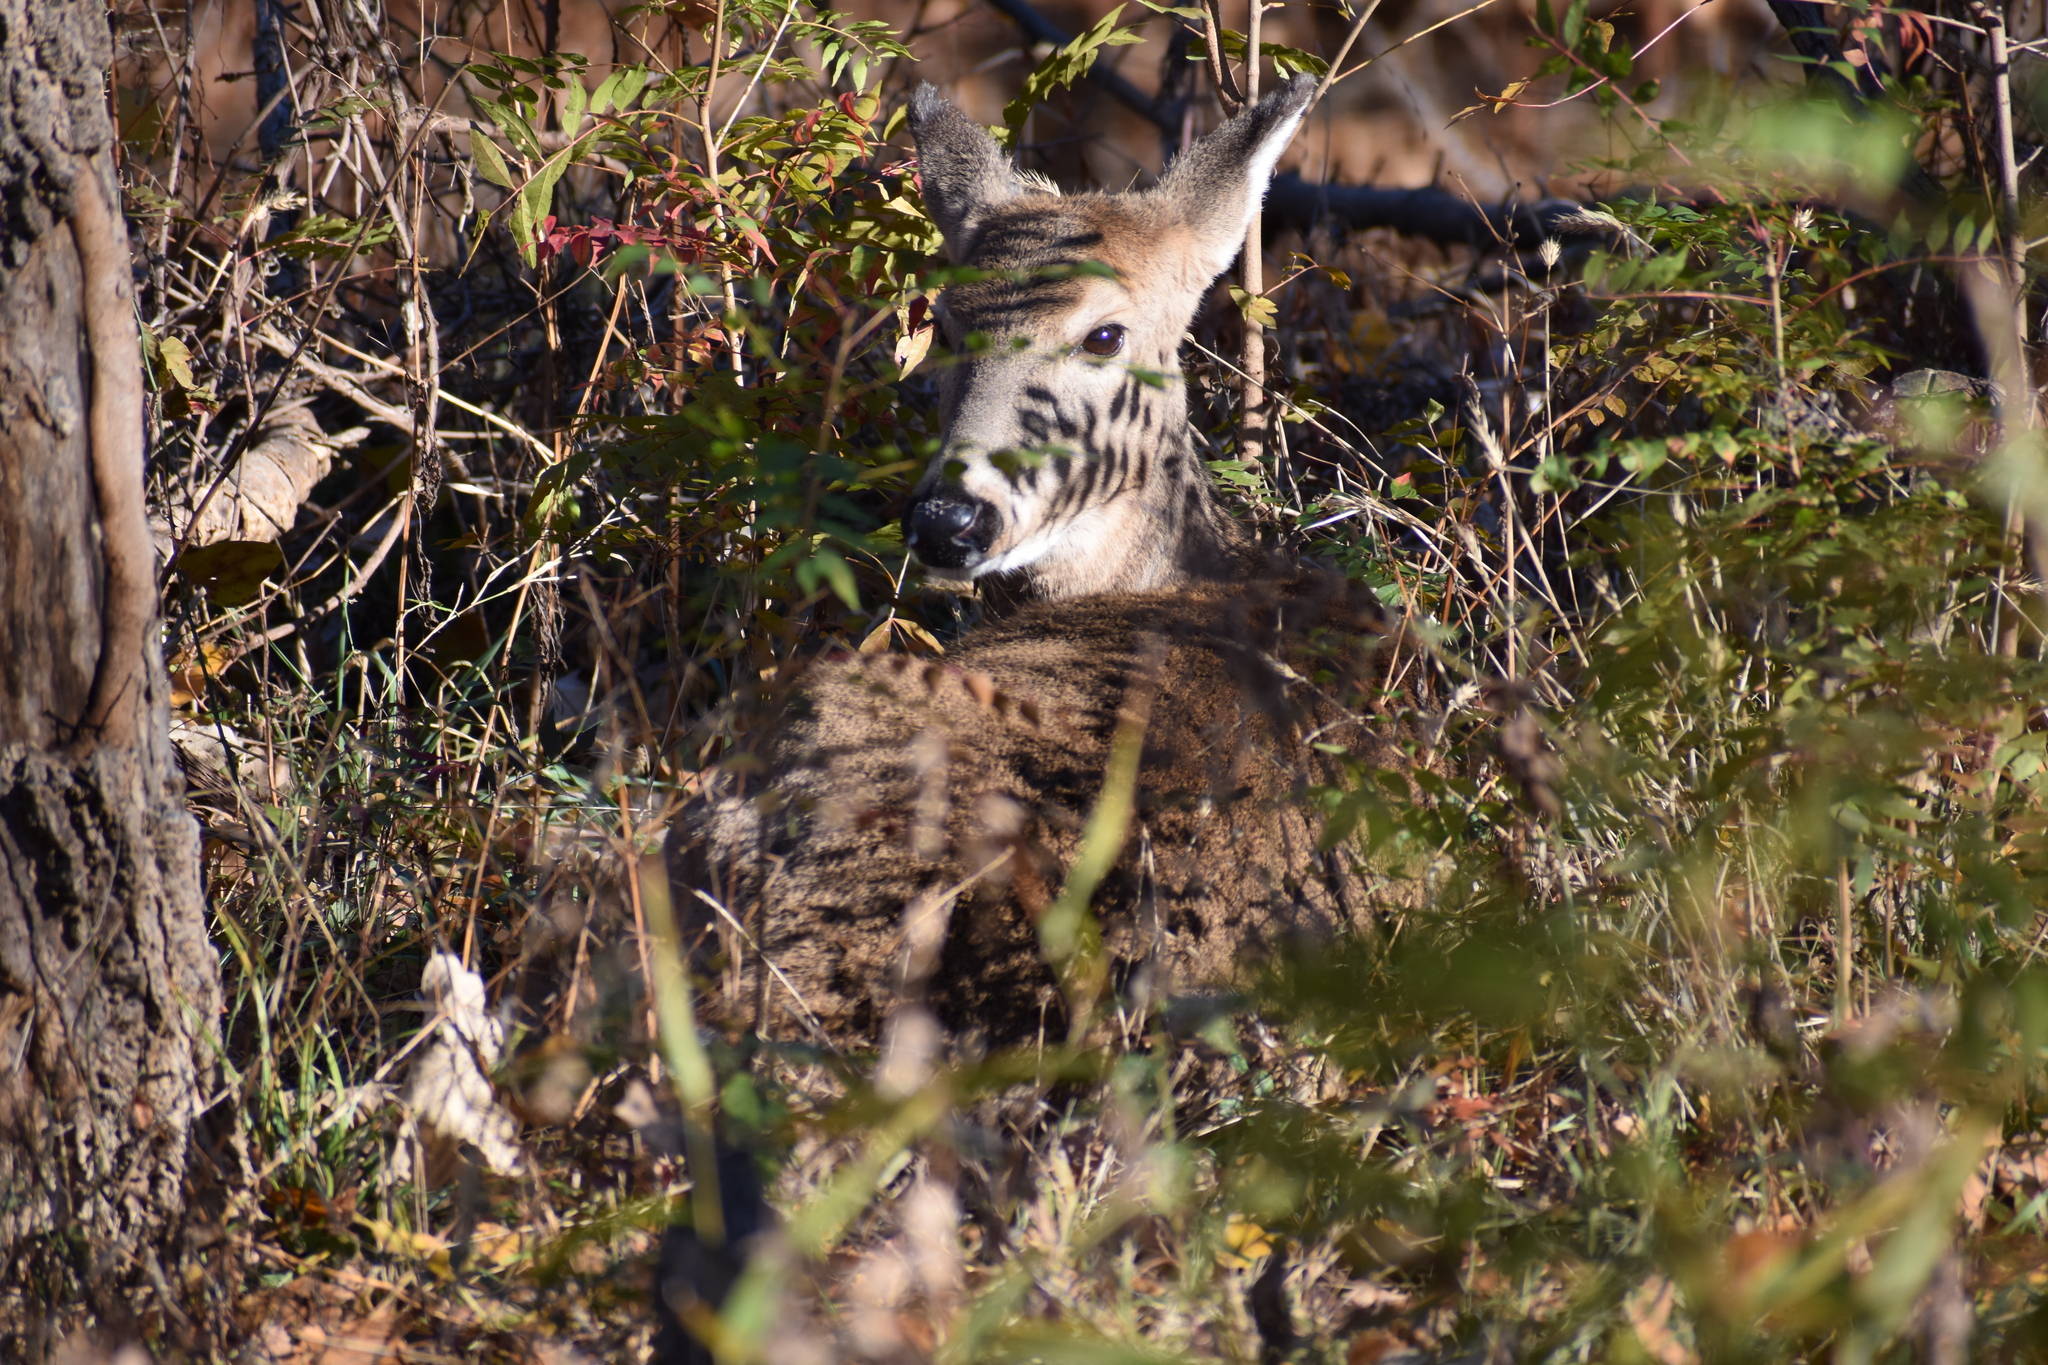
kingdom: Animalia
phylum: Chordata
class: Mammalia
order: Artiodactyla
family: Cervidae
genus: Odocoileus
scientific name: Odocoileus virginianus
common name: White-tailed deer
